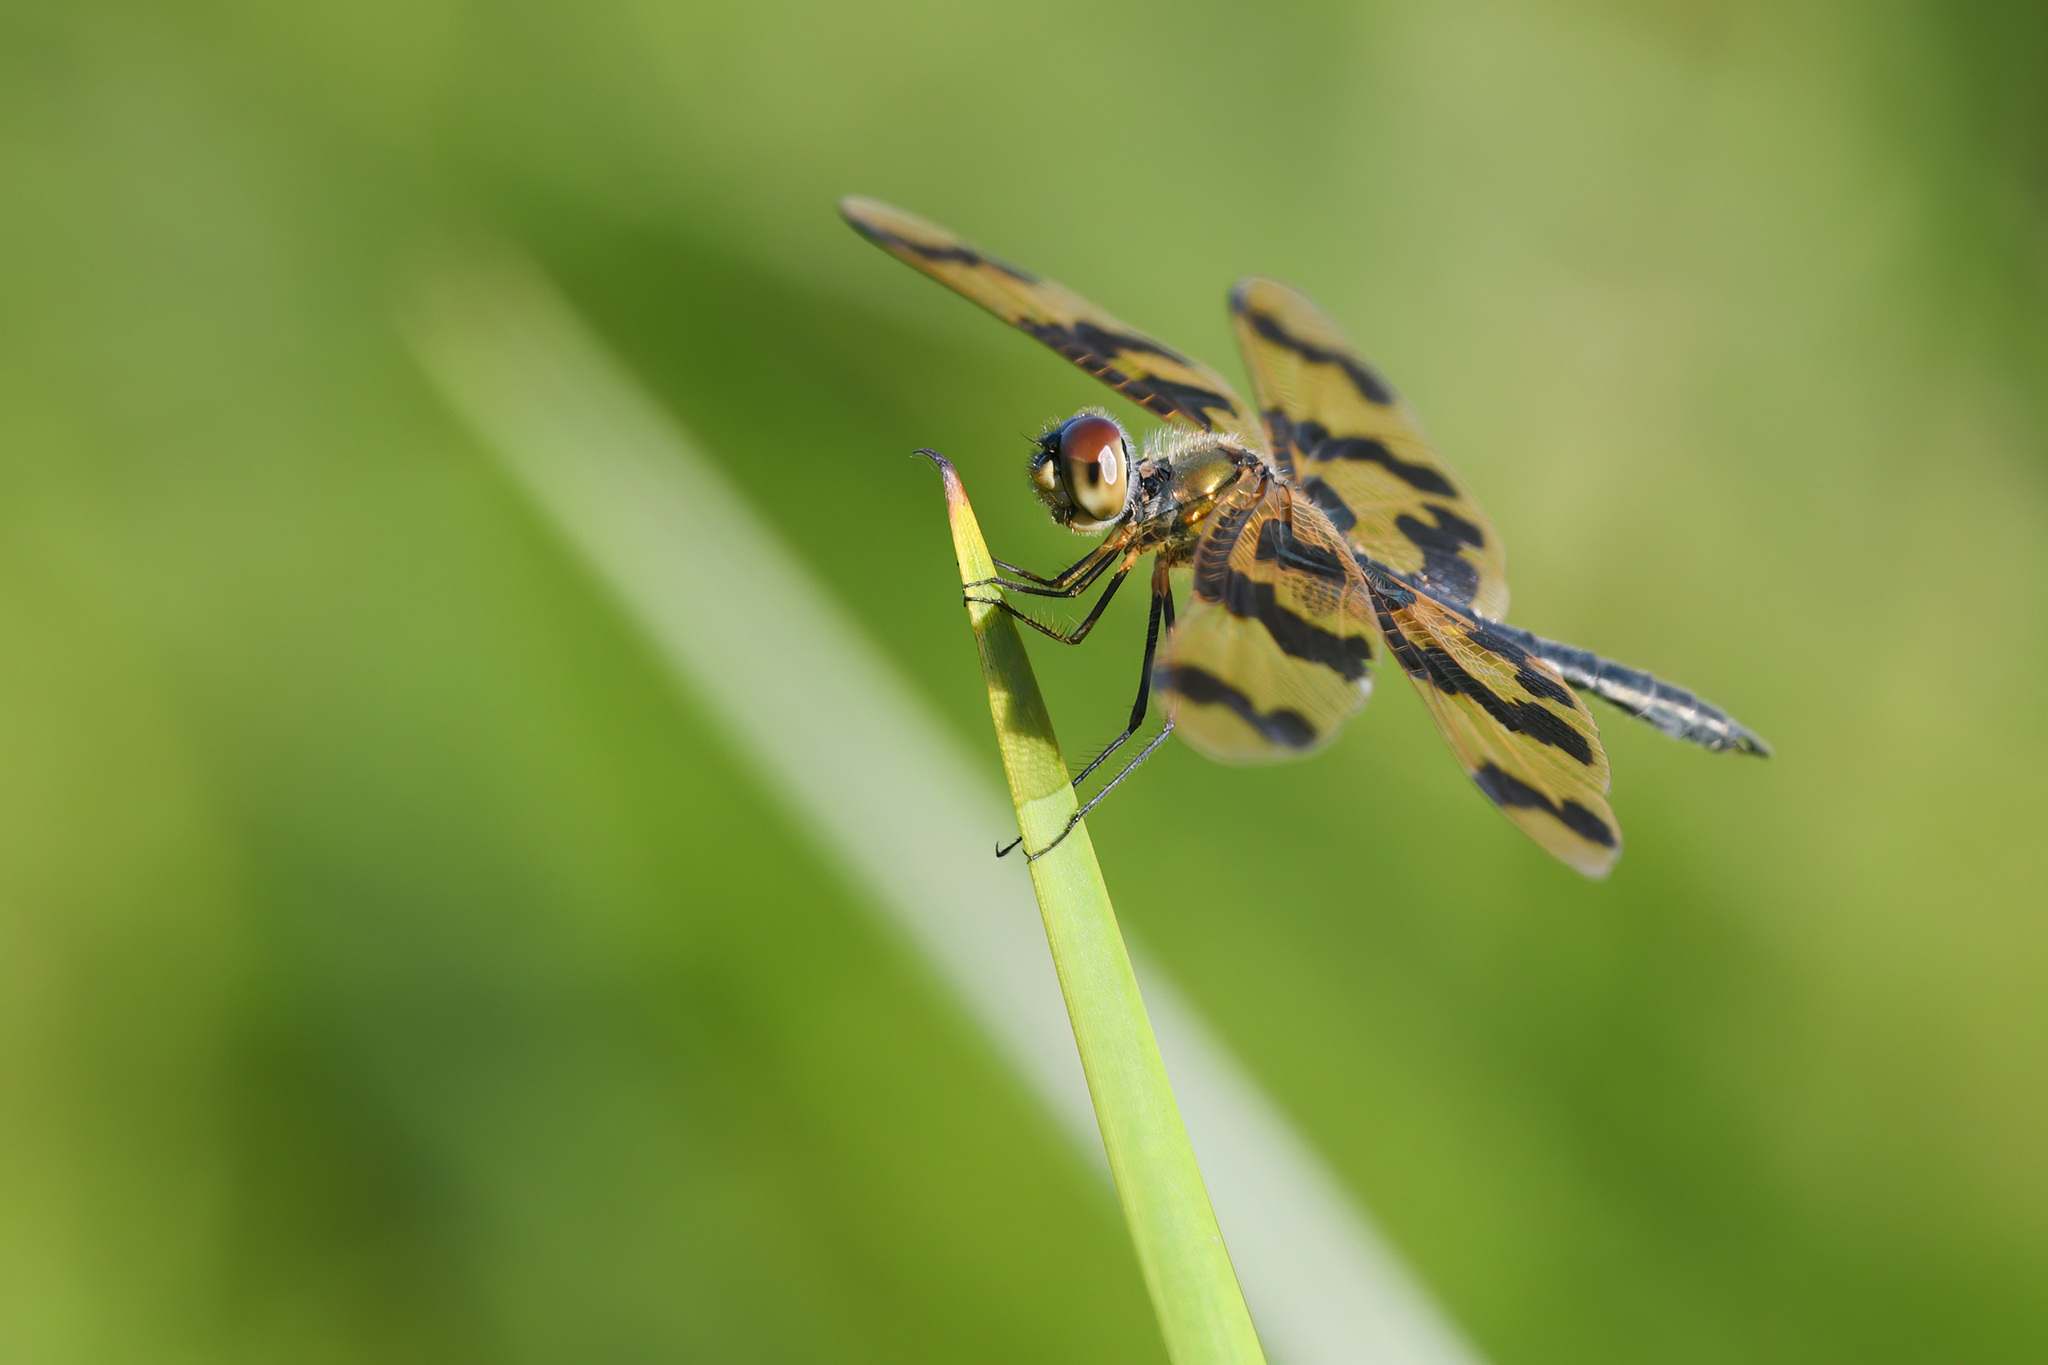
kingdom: Animalia
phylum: Arthropoda
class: Insecta
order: Odonata
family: Libellulidae
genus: Rhyothemis
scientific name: Rhyothemis graphiptera
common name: Graphic flutterer
